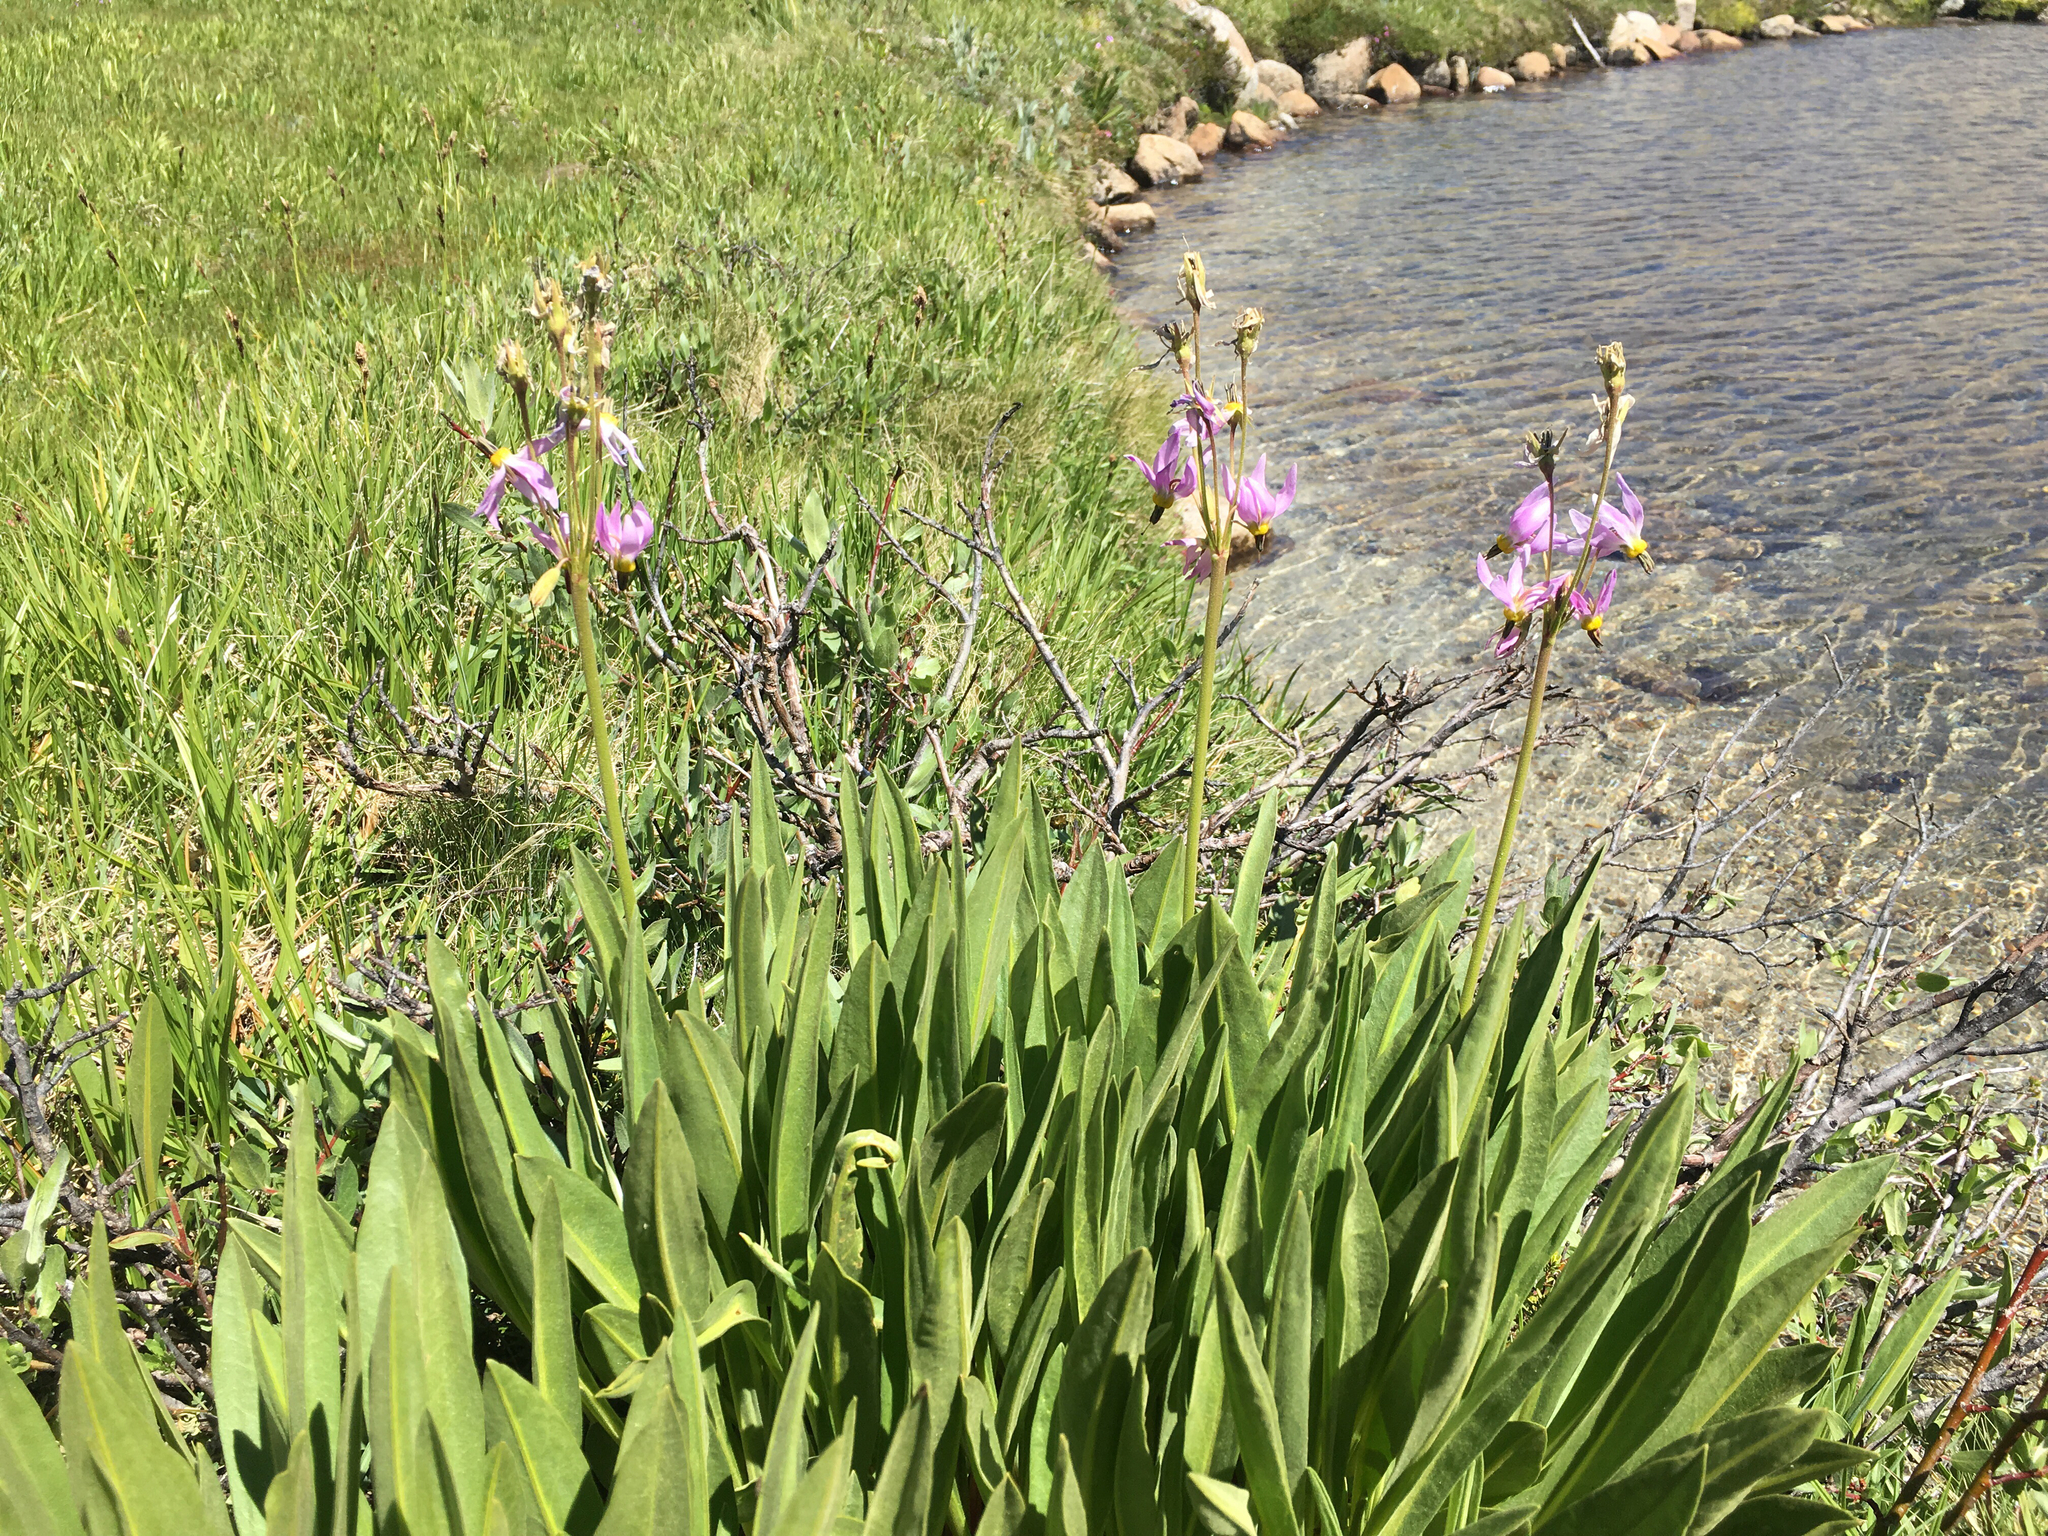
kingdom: Plantae
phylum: Tracheophyta
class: Magnoliopsida
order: Ericales
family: Primulaceae
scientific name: Primulaceae
